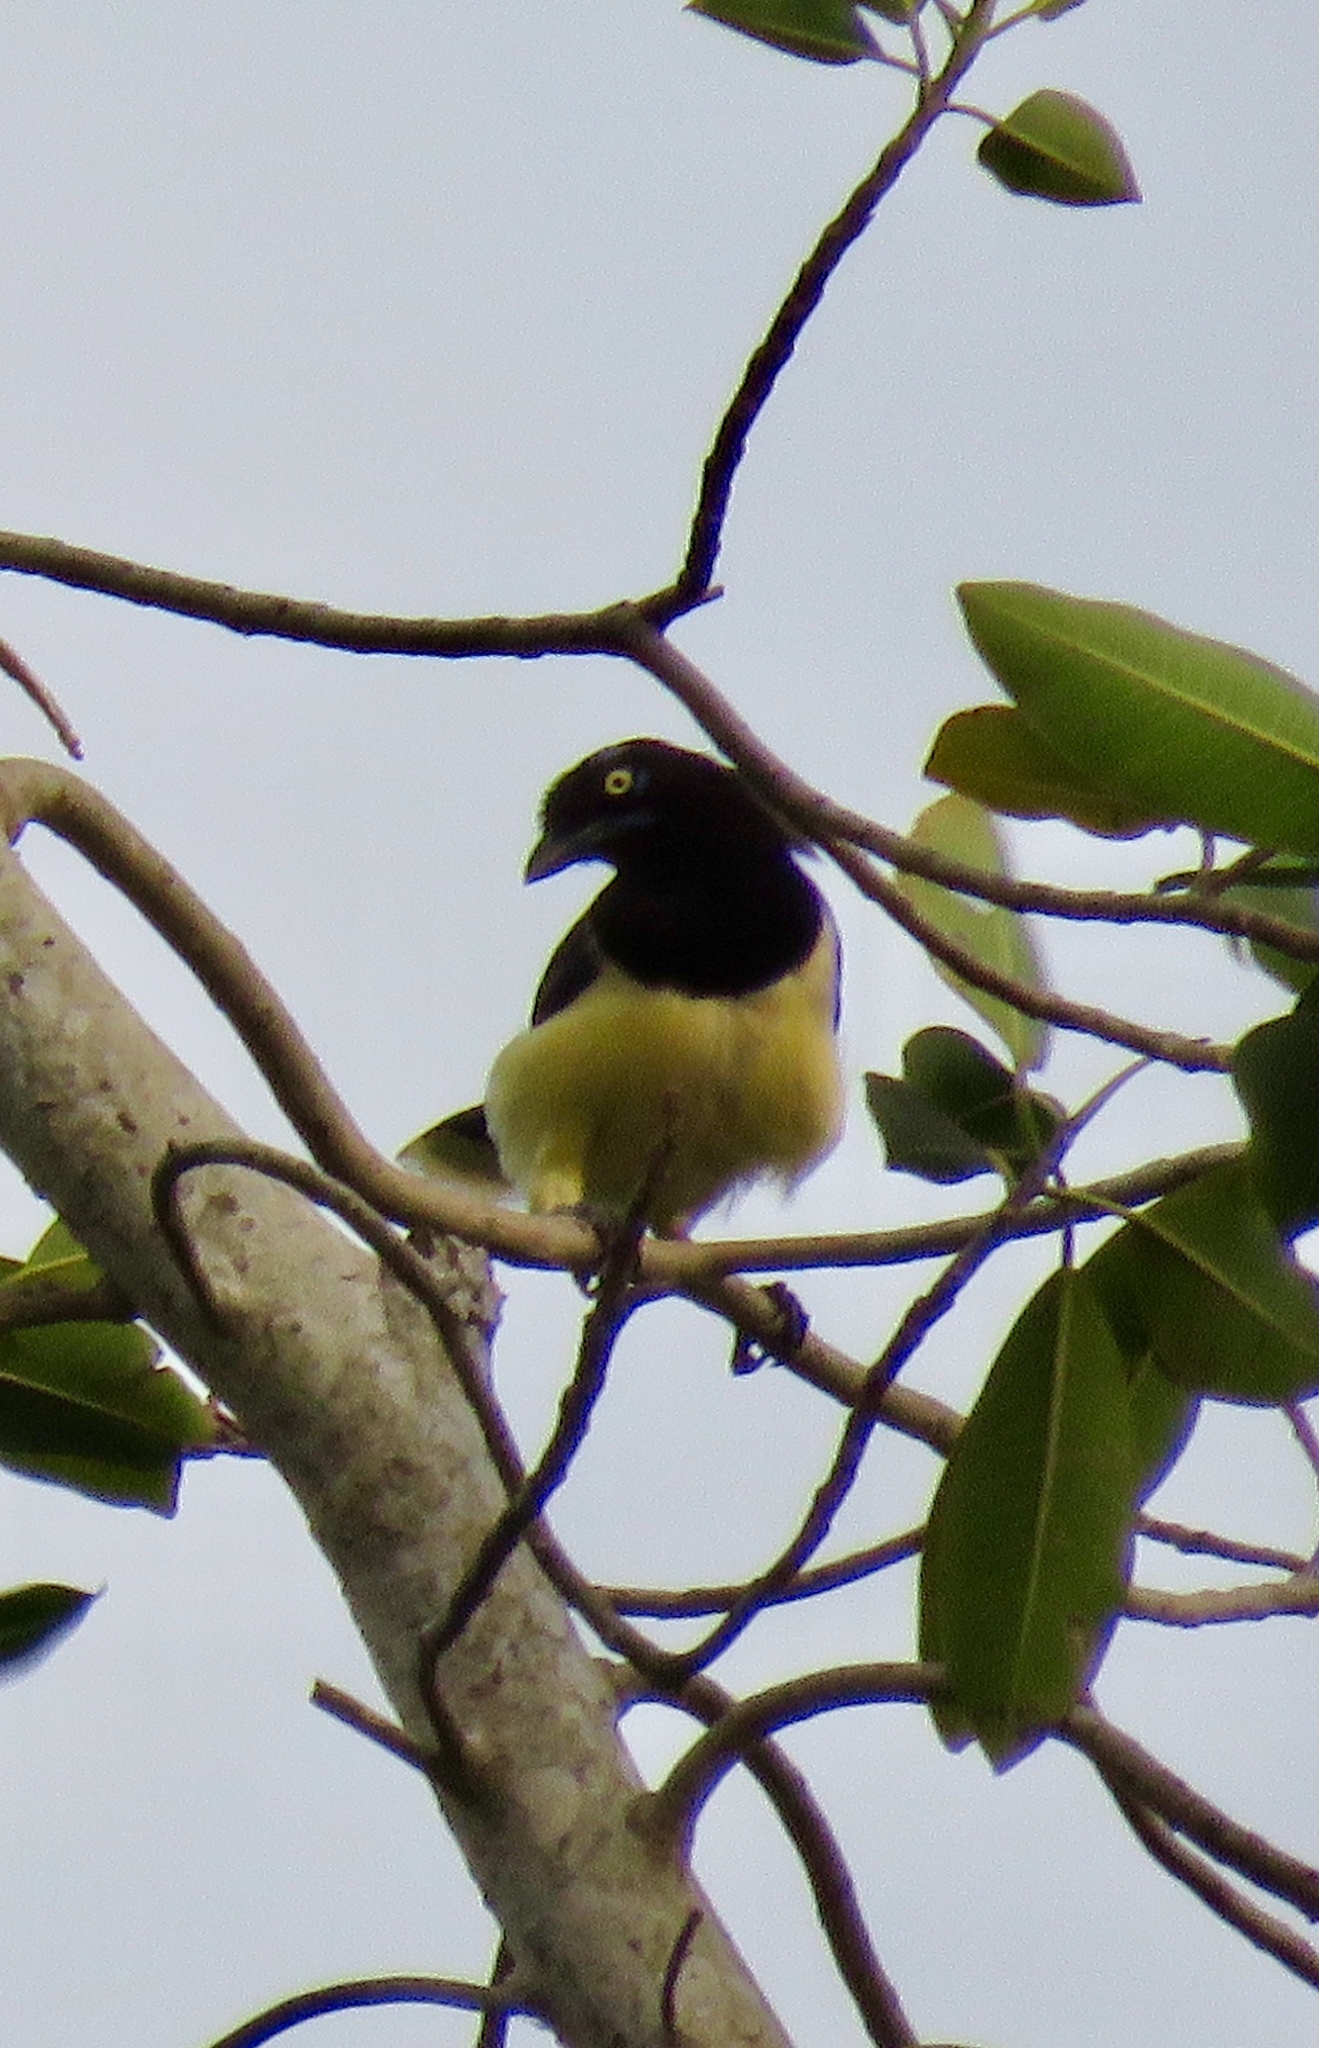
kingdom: Animalia
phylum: Chordata
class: Aves
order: Passeriformes
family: Corvidae
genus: Cyanocorax
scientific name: Cyanocorax affinis
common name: Black-chested jay
